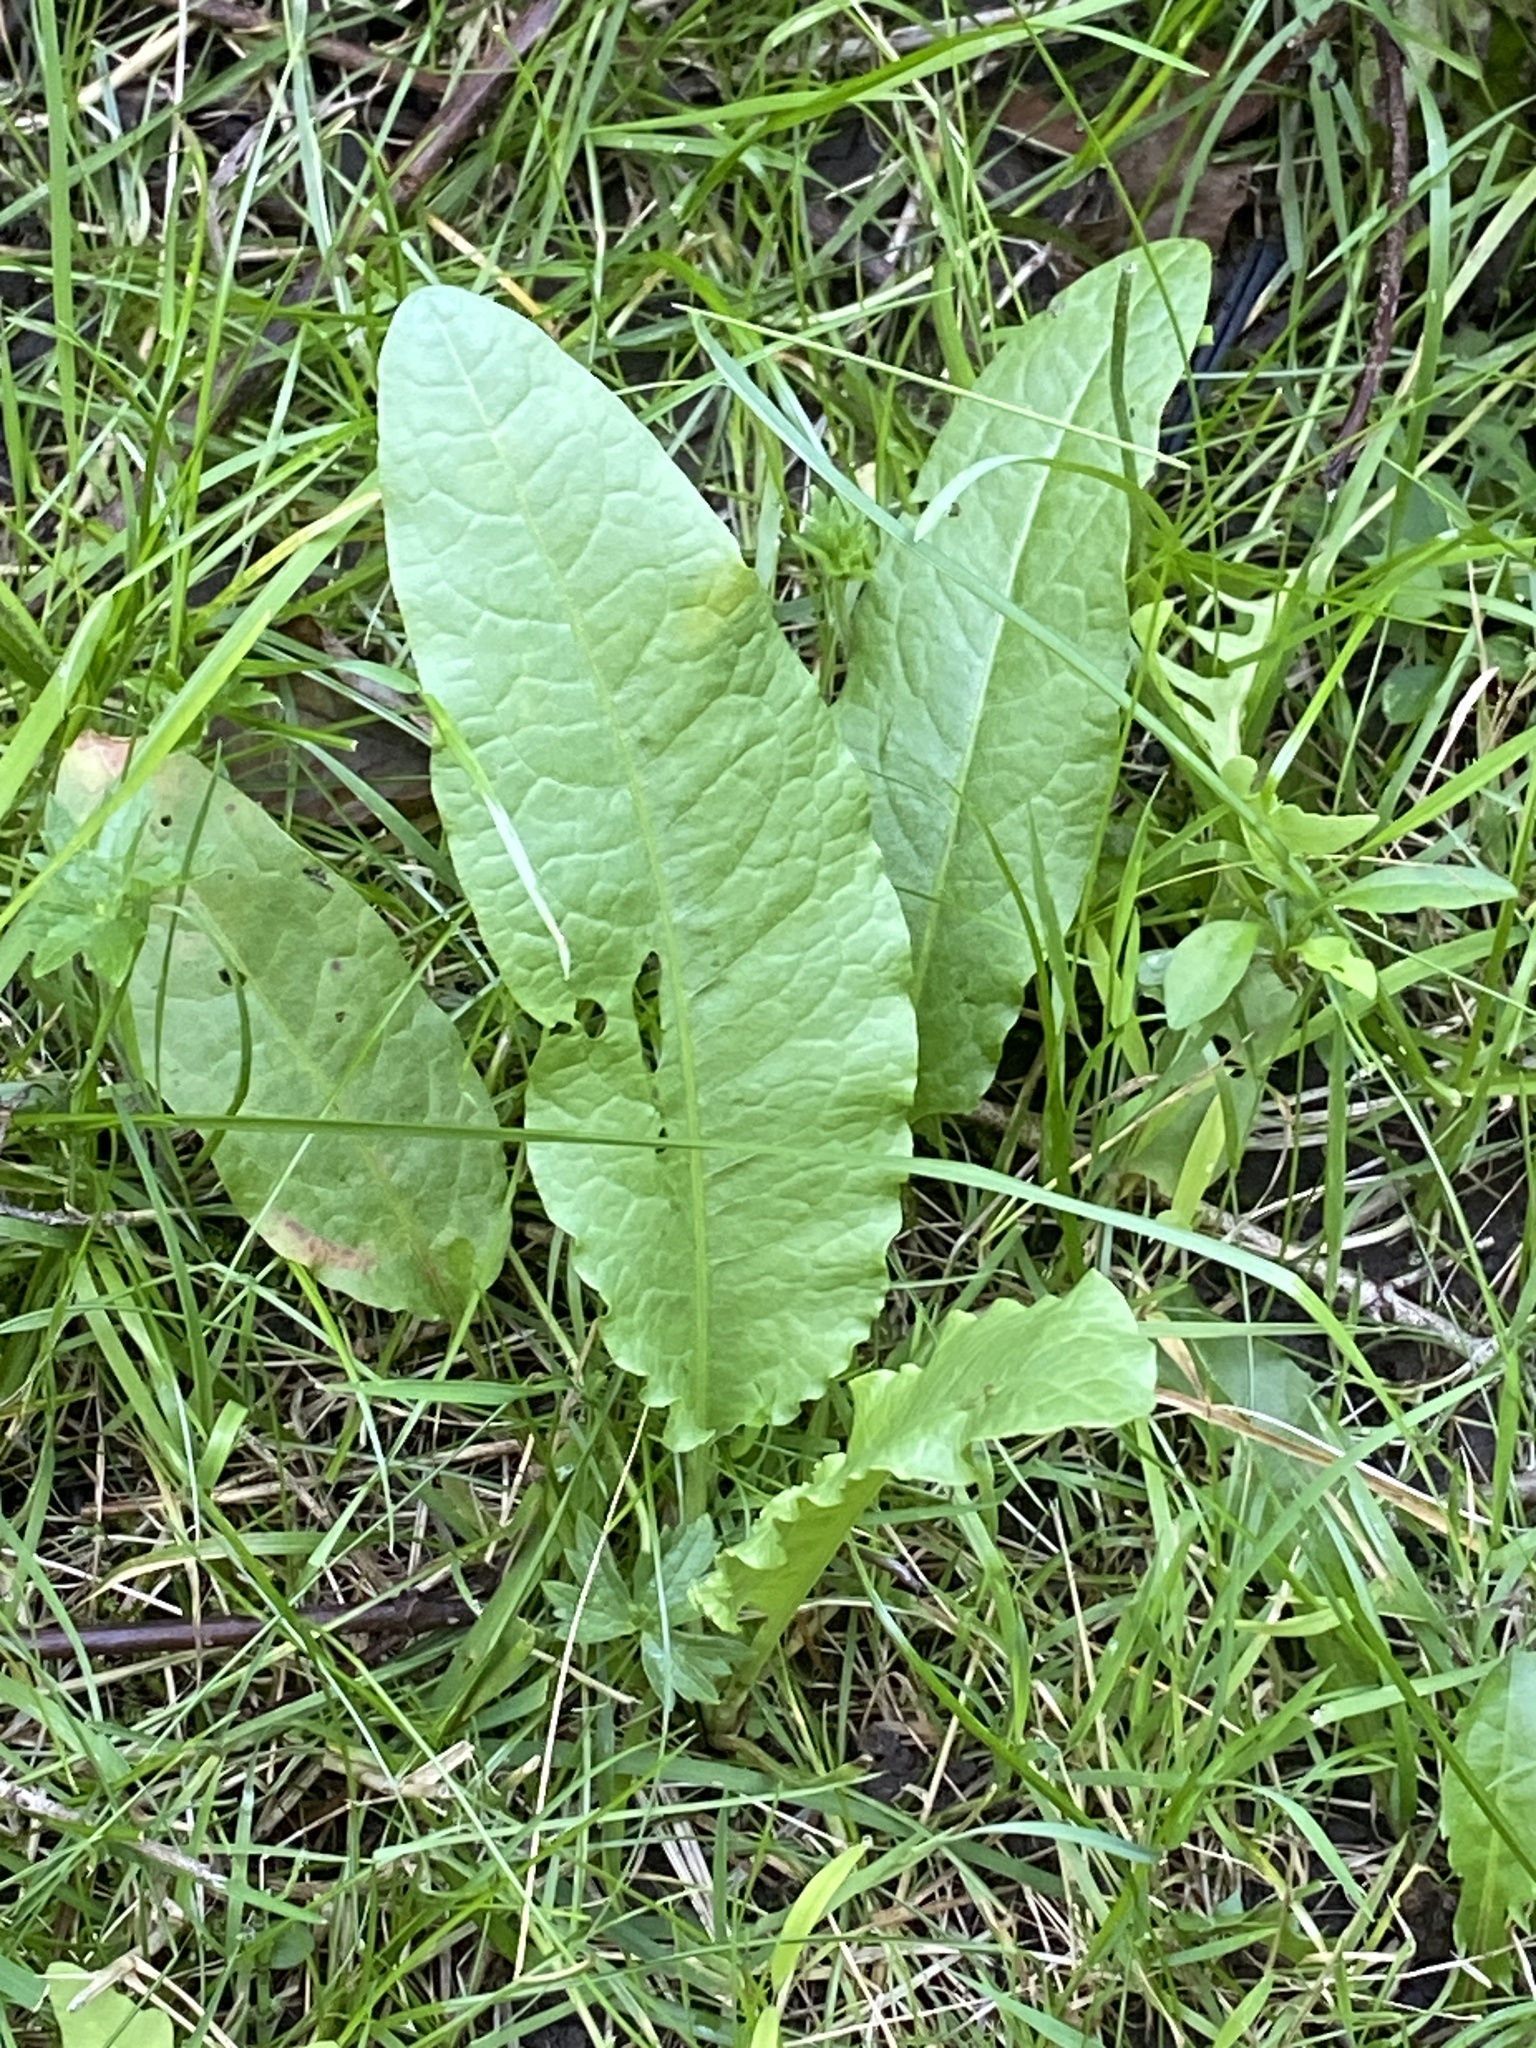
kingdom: Plantae
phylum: Tracheophyta
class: Magnoliopsida
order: Caryophyllales
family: Polygonaceae
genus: Rumex
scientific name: Rumex crispus
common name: Curled dock
